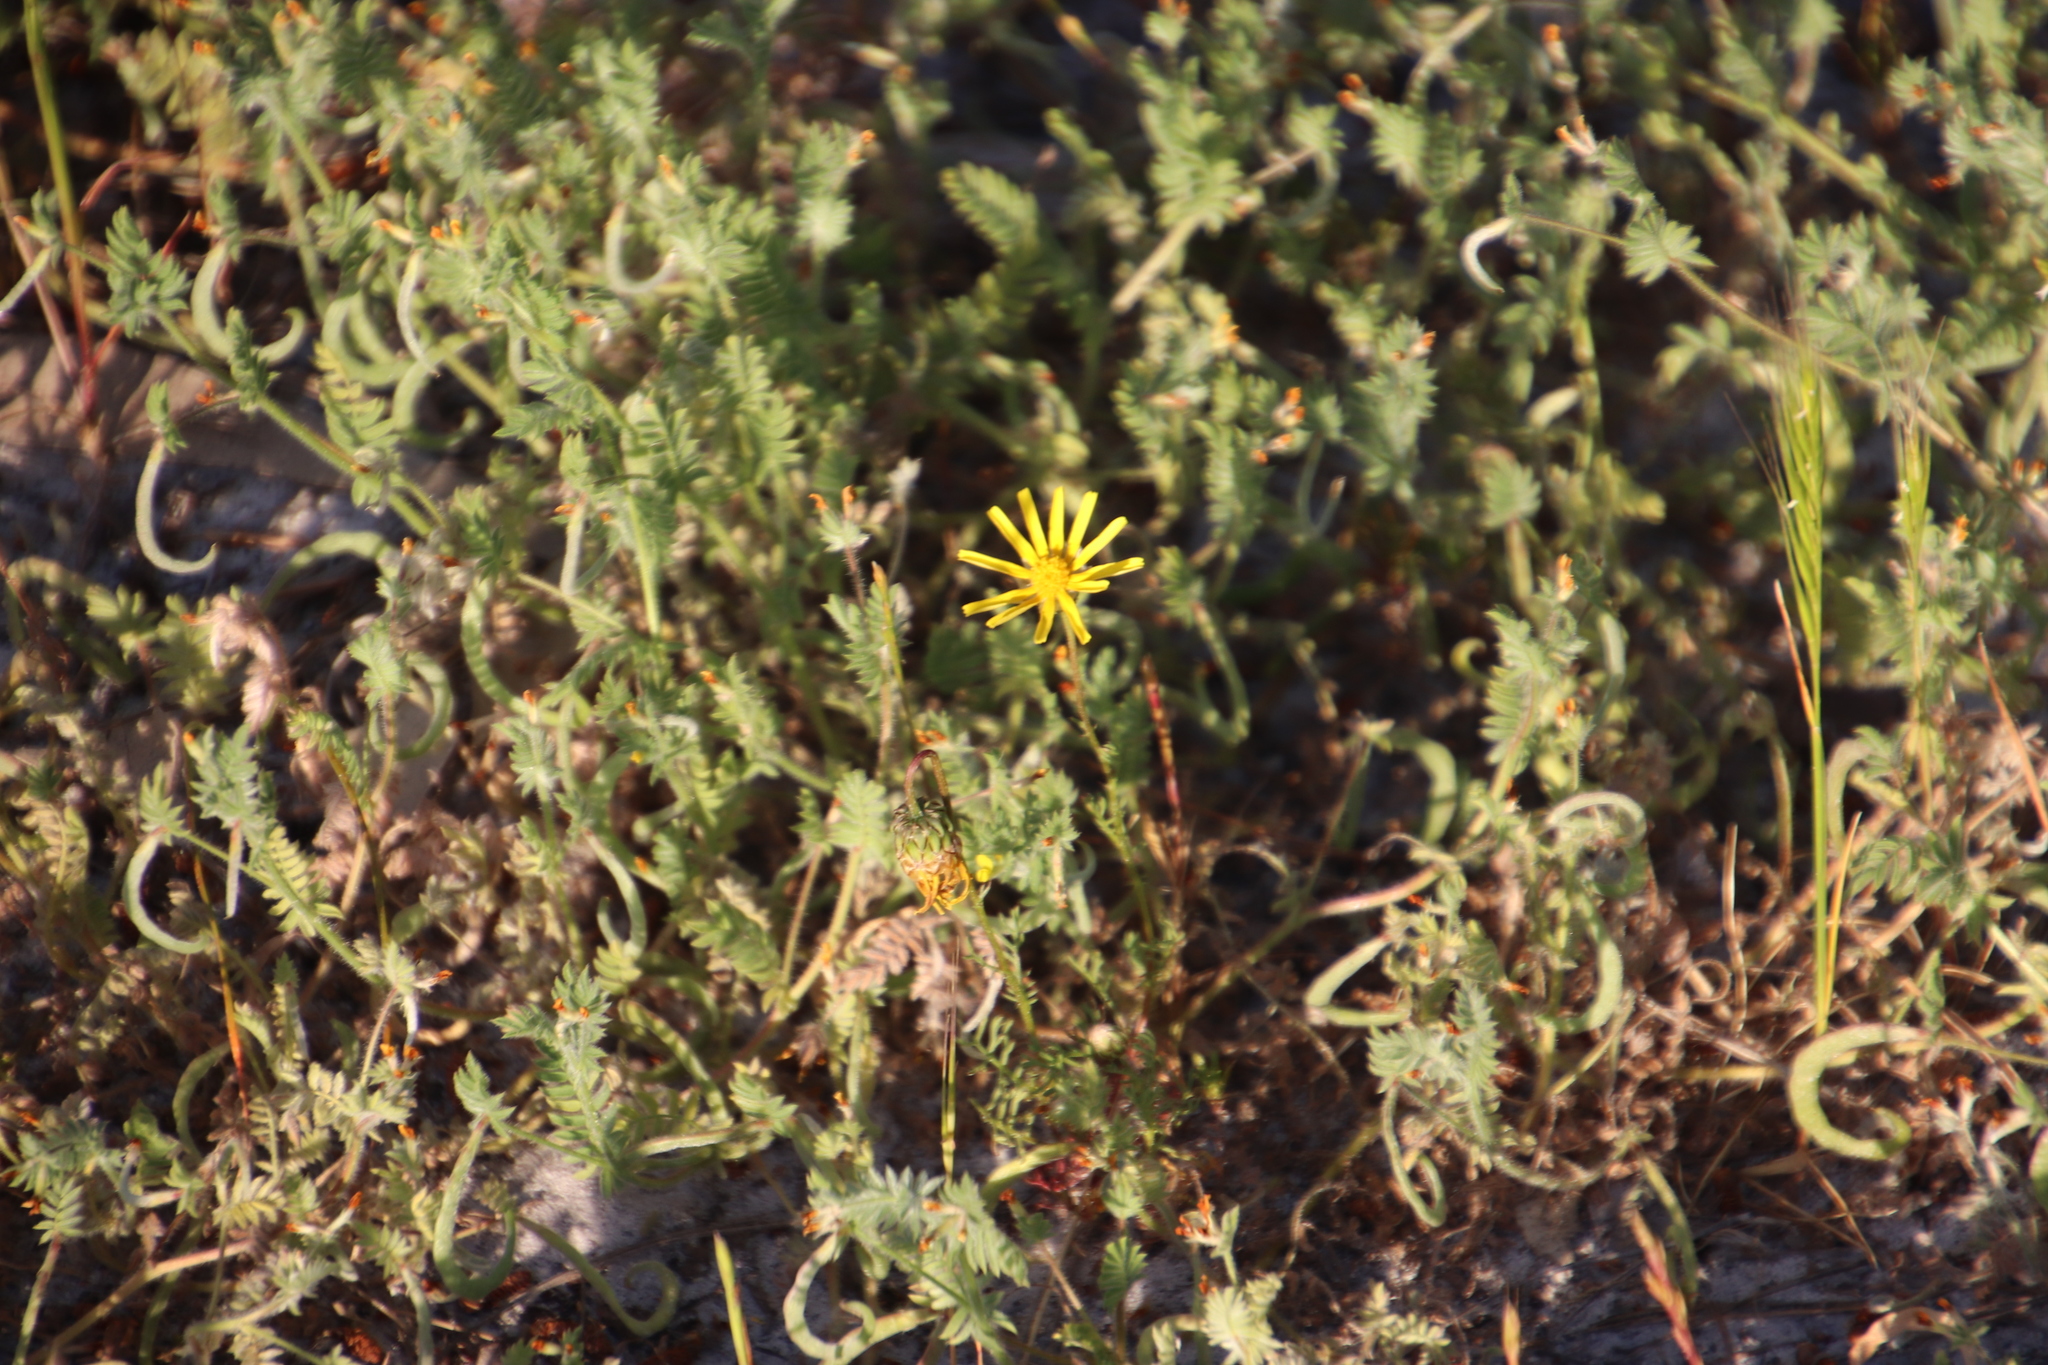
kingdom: Plantae
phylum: Tracheophyta
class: Magnoliopsida
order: Asterales
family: Asteraceae
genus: Ursinia
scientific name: Ursinia anthemoides
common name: Ursinia
